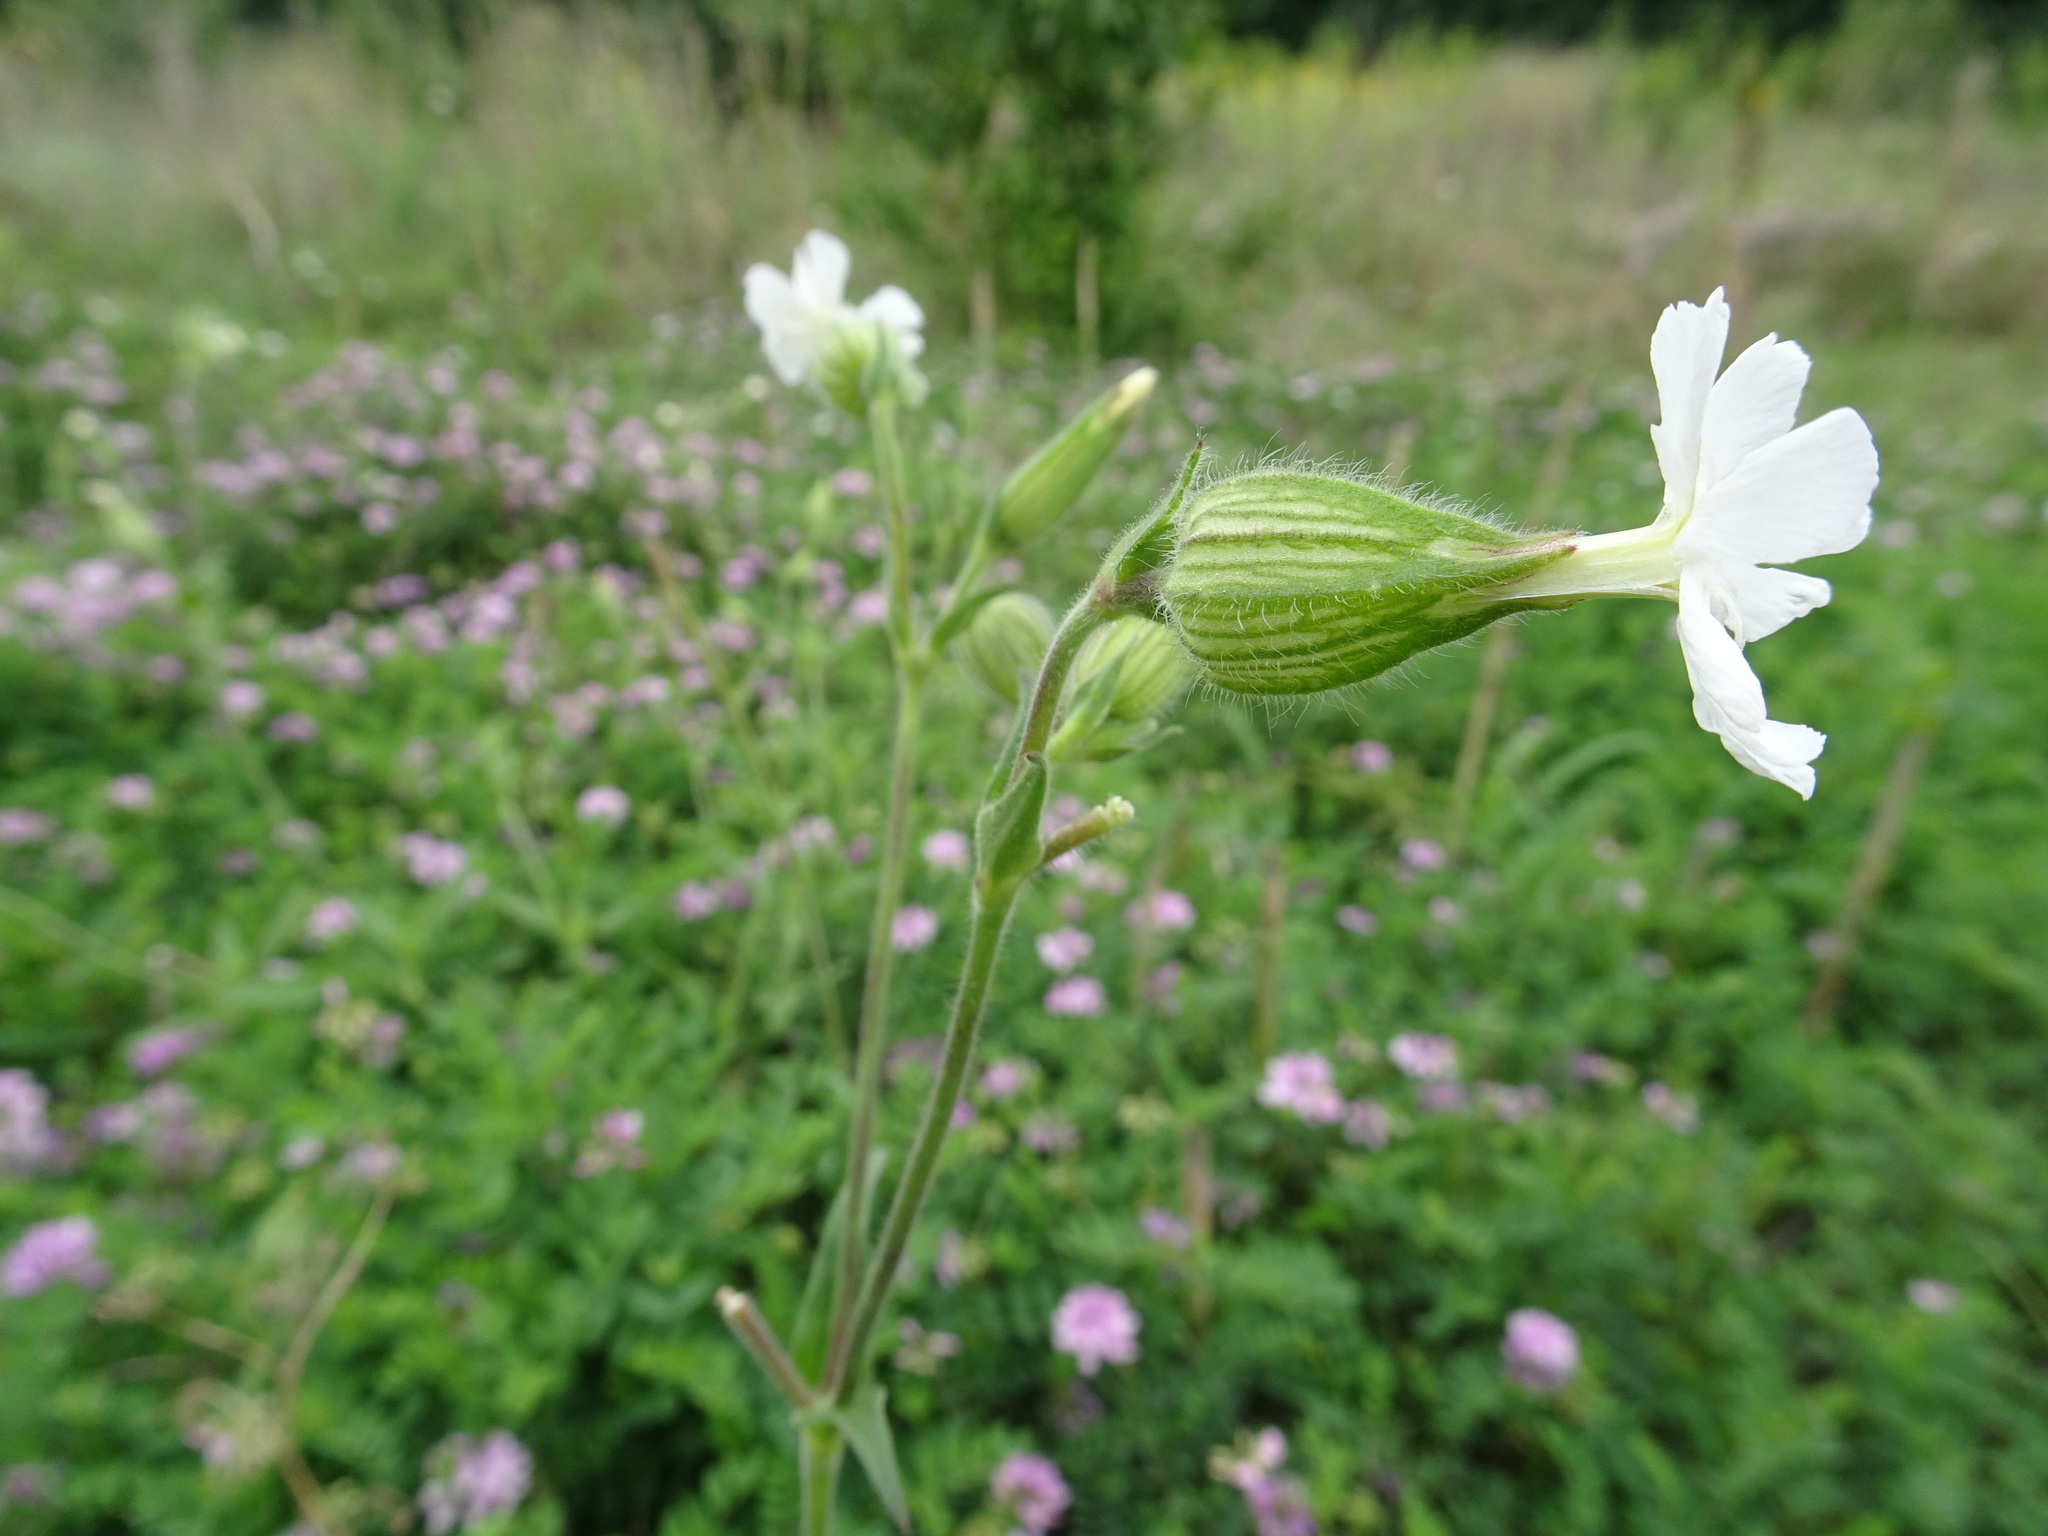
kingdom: Plantae
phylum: Tracheophyta
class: Magnoliopsida
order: Caryophyllales
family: Caryophyllaceae
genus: Silene
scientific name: Silene latifolia
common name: White campion
